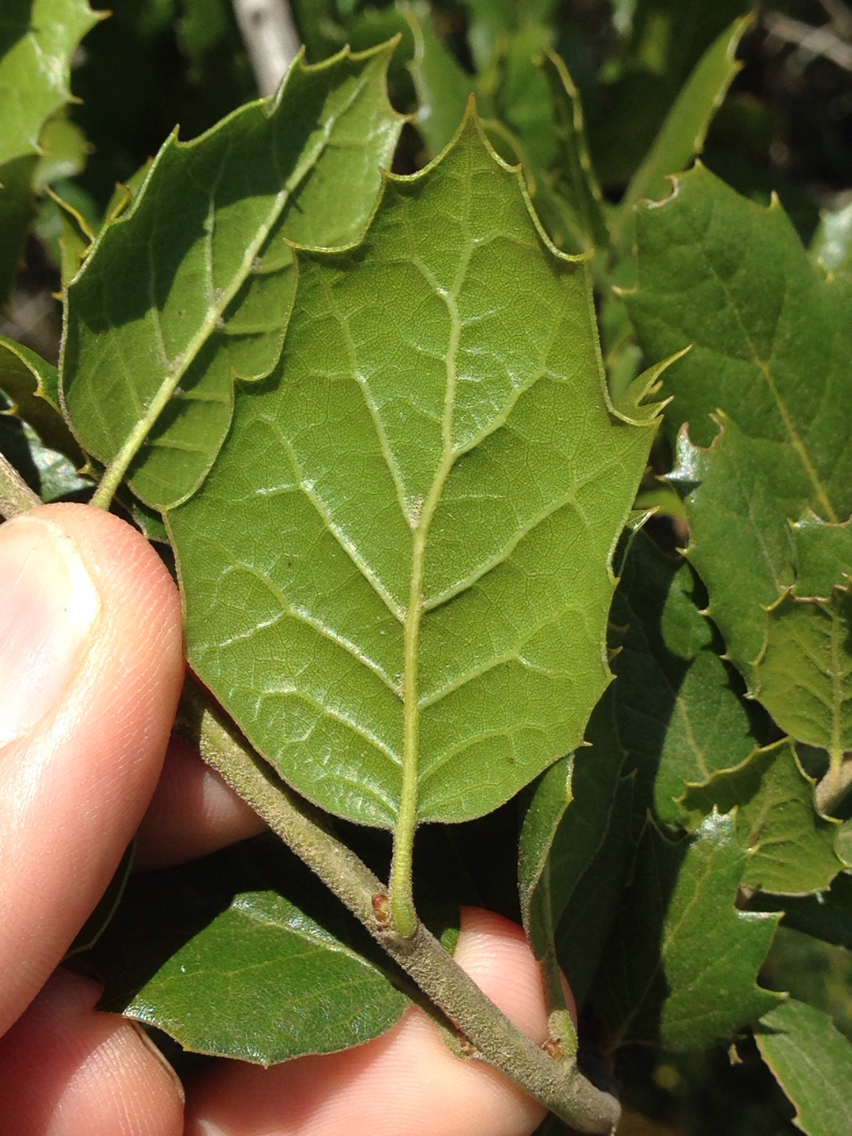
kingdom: Plantae
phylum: Tracheophyta
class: Magnoliopsida
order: Fagales
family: Fagaceae
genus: Quercus
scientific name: Quercus agrifolia
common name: California live oak
